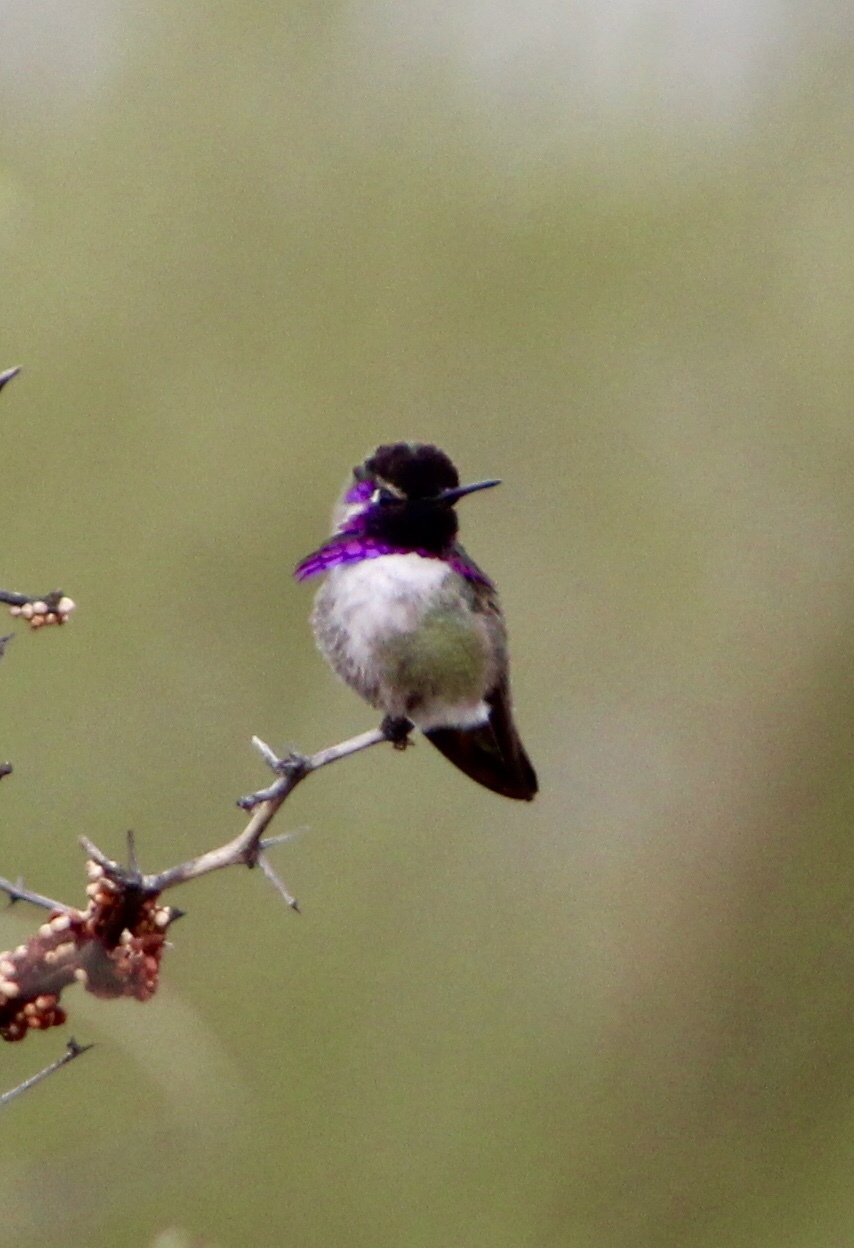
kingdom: Animalia
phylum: Chordata
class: Aves
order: Apodiformes
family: Trochilidae
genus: Calypte
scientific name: Calypte costae
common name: Costa's hummingbird
